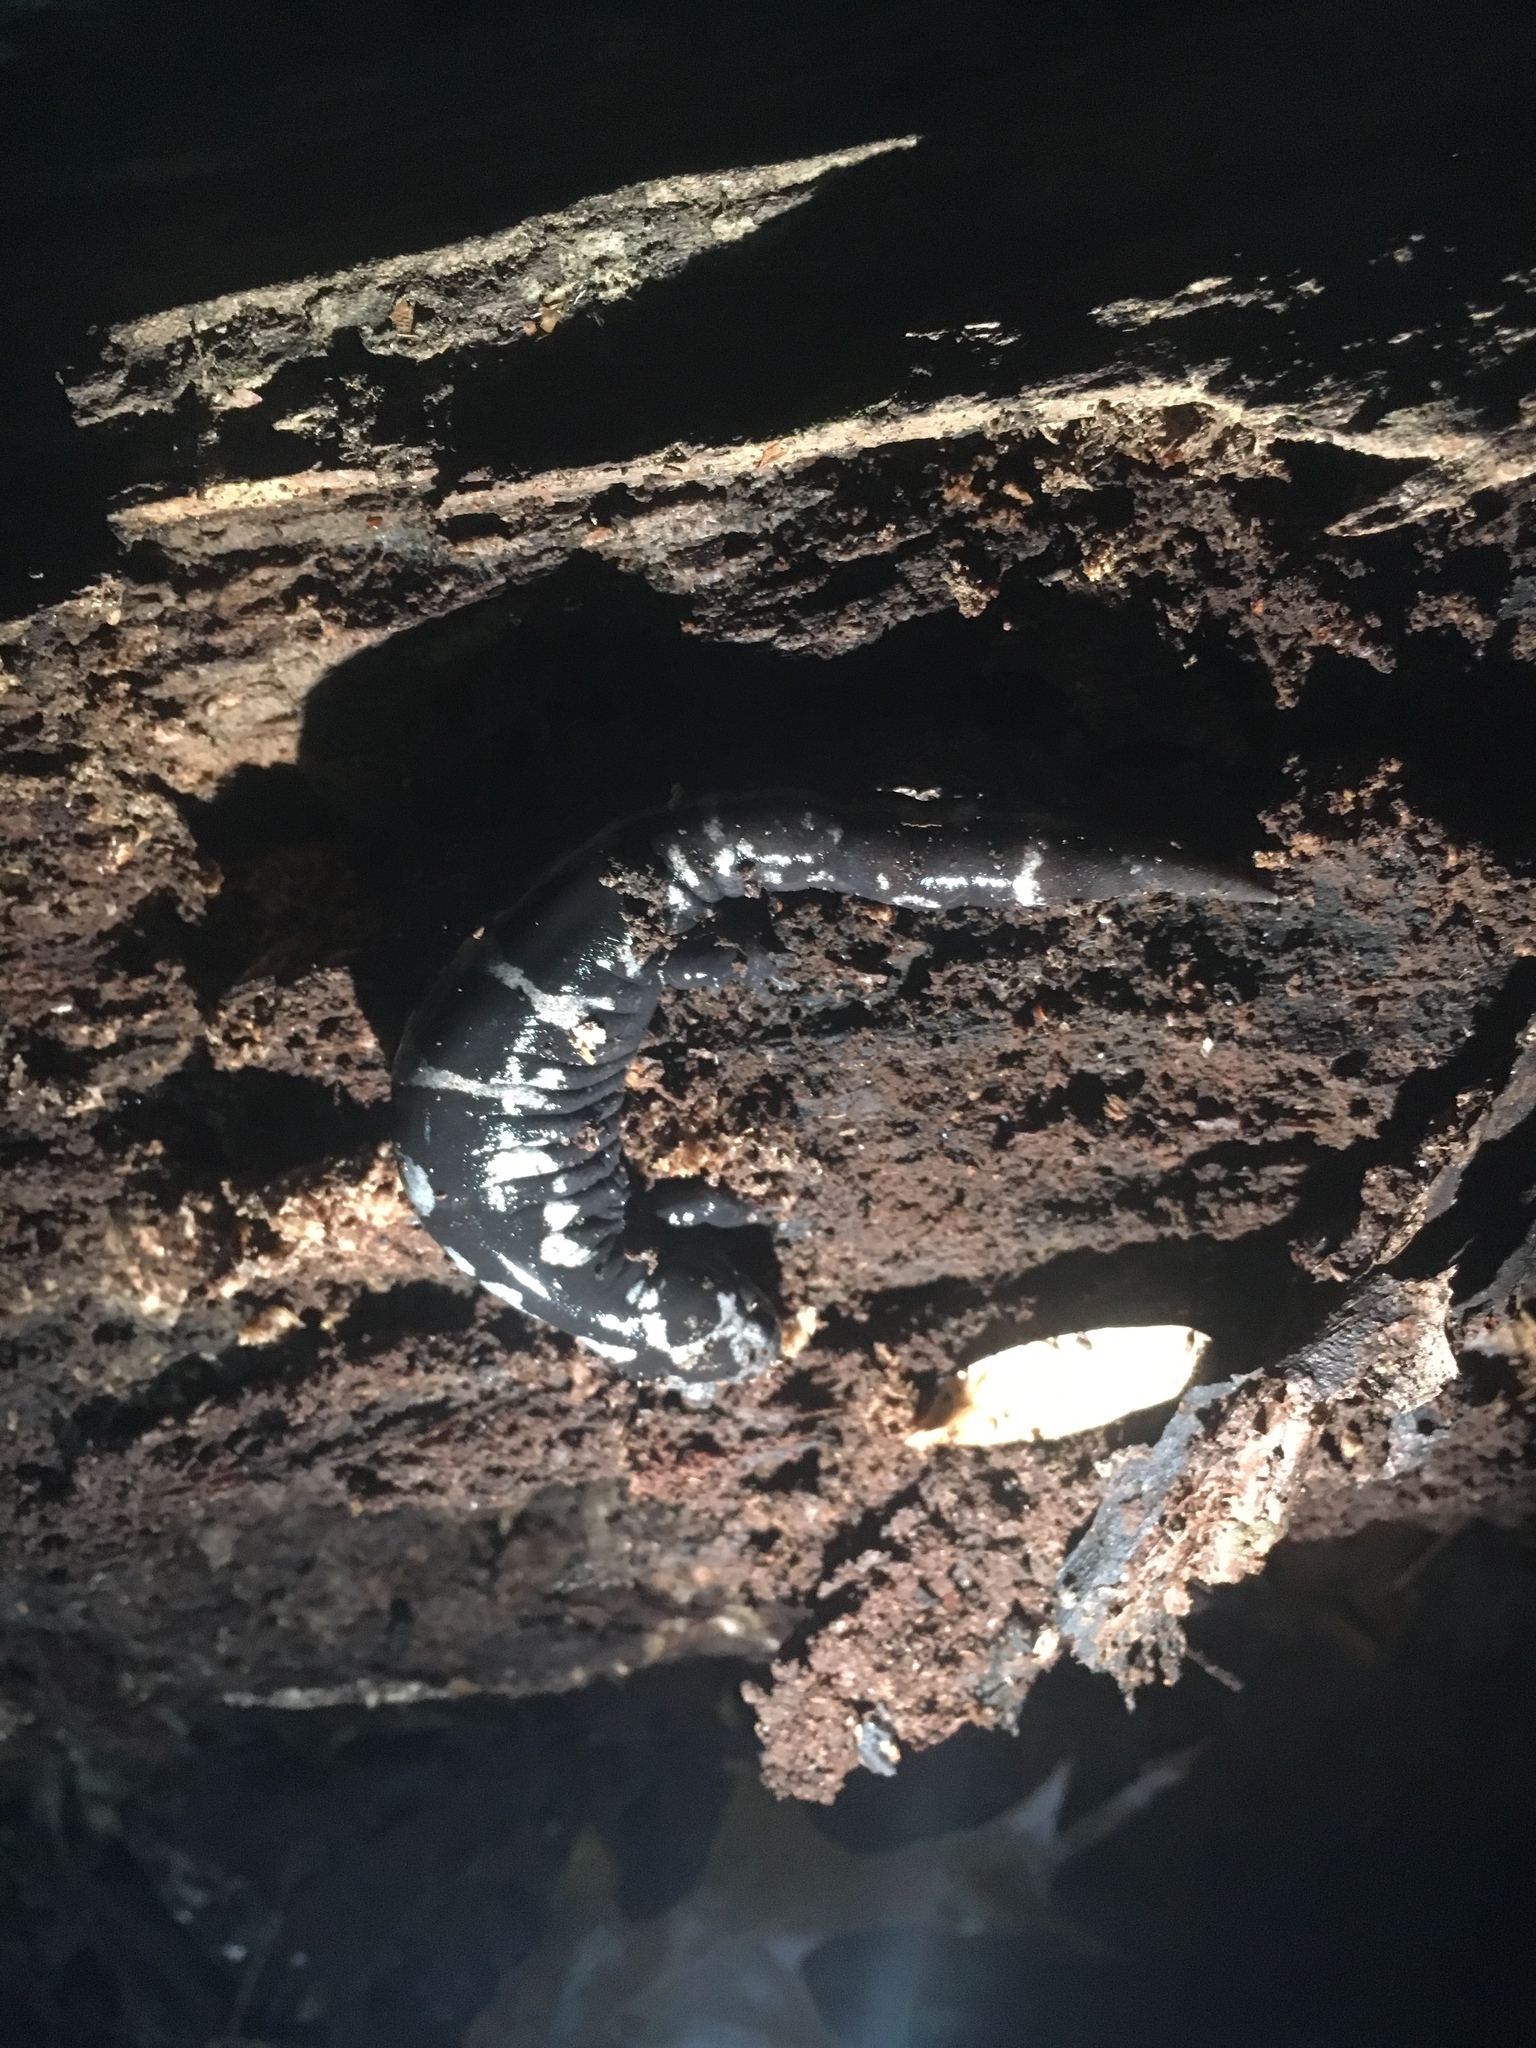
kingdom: Animalia
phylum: Chordata
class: Amphibia
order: Caudata
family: Ambystomatidae
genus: Ambystoma
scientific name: Ambystoma opacum
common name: Marbled salamander
